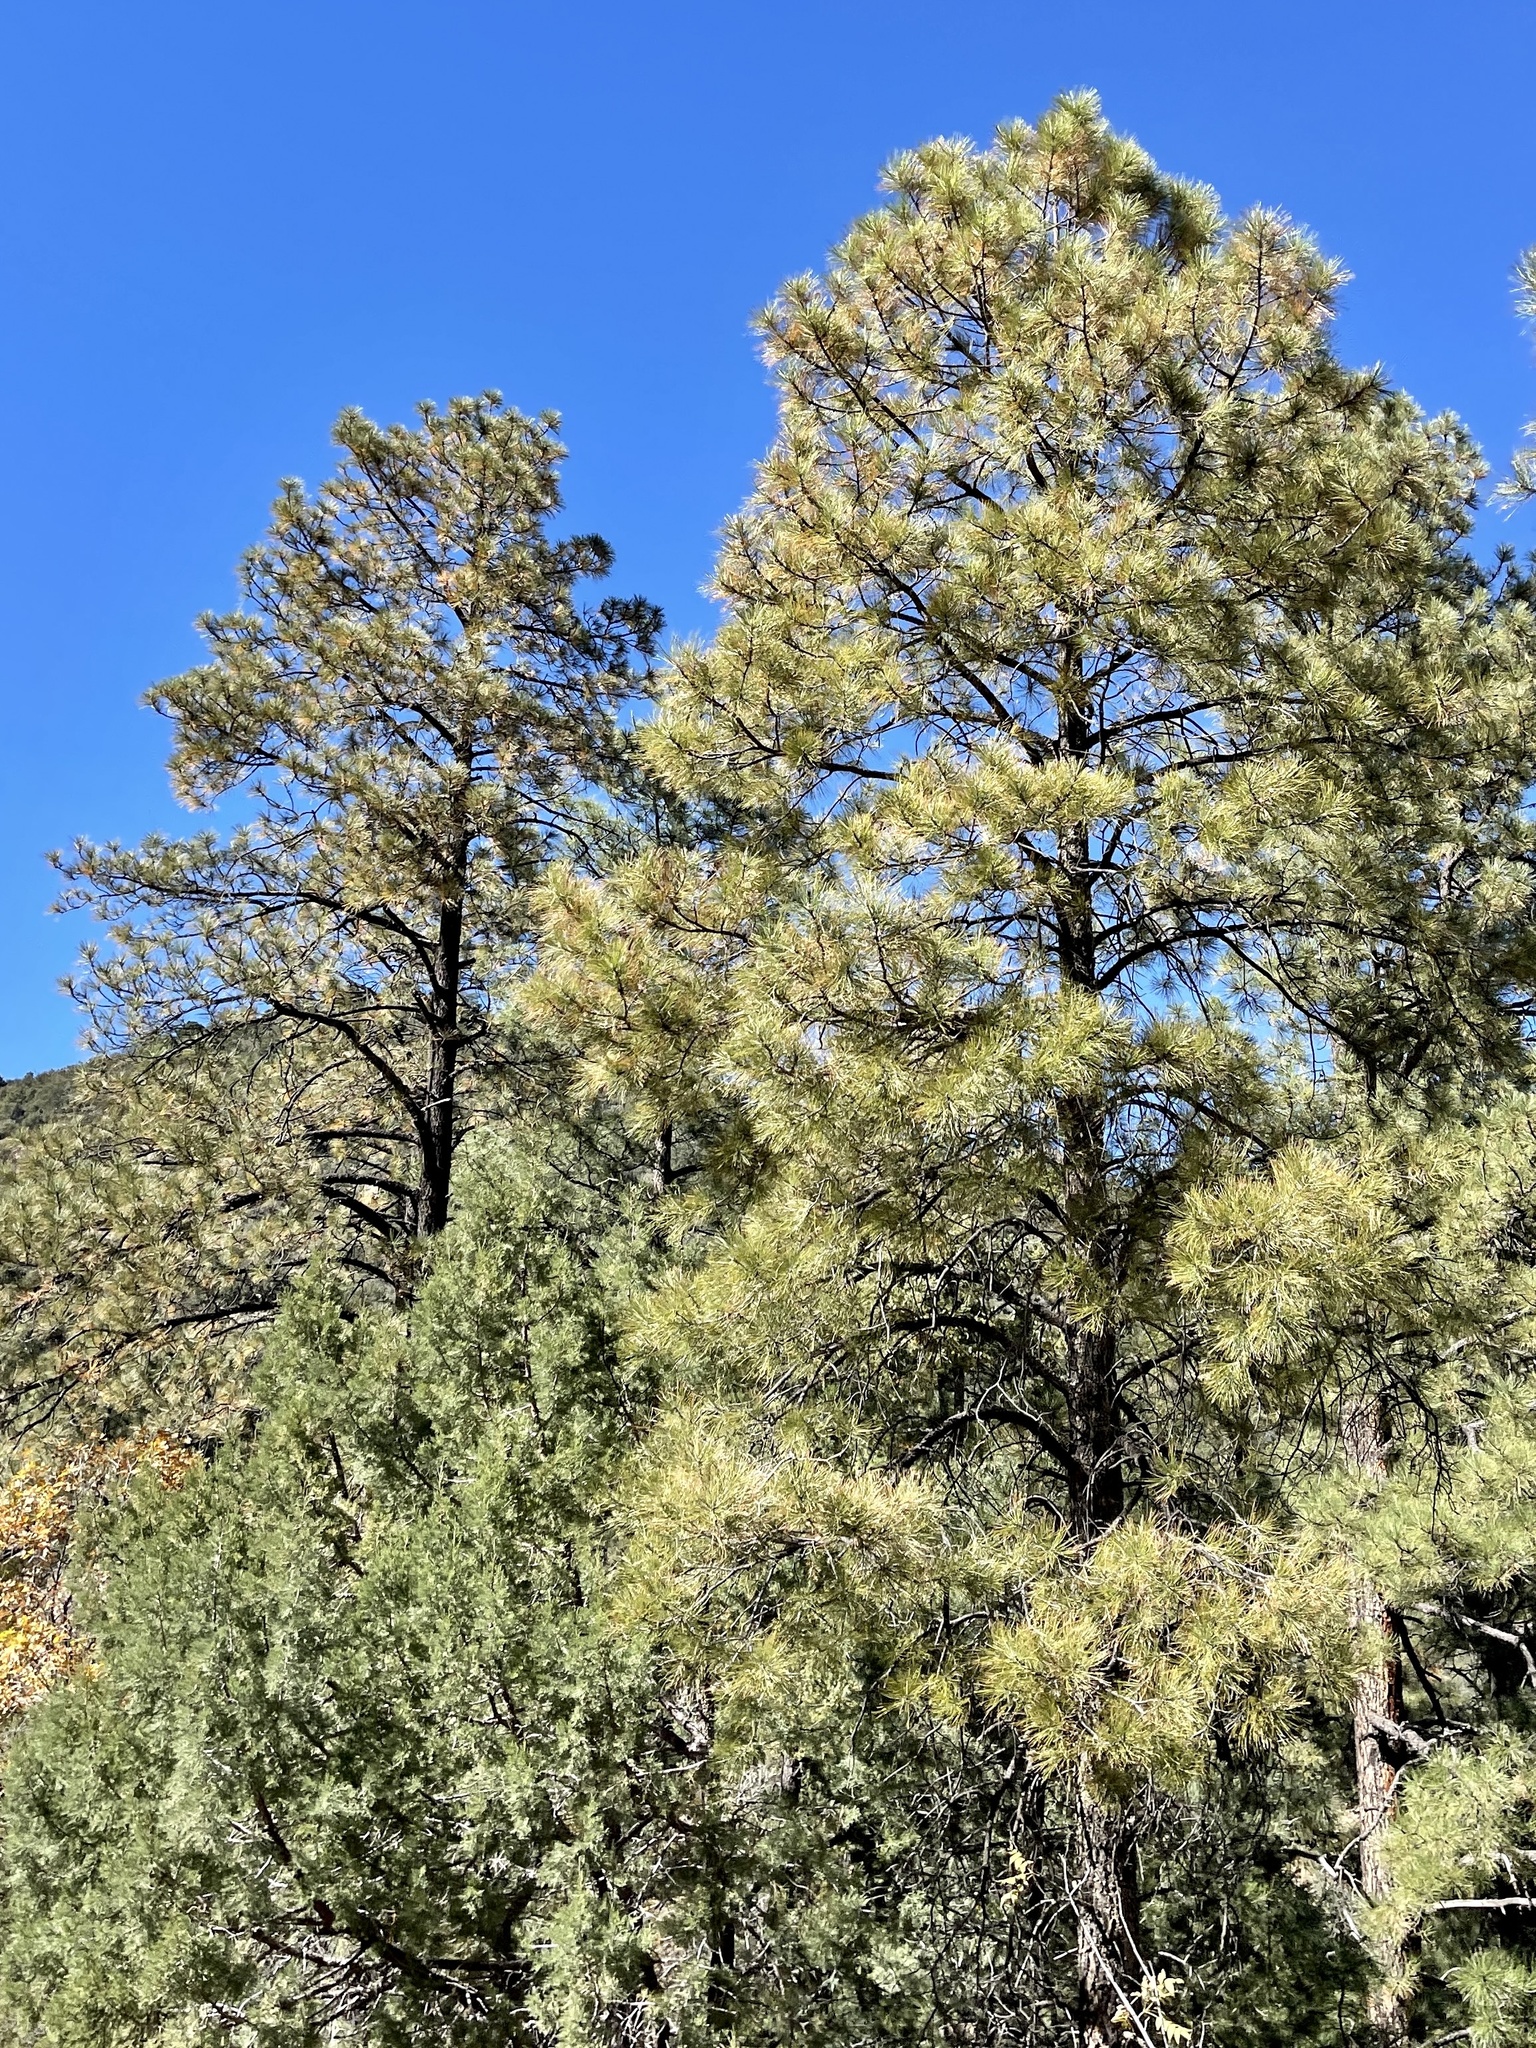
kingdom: Plantae
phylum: Tracheophyta
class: Pinopsida
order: Pinales
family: Pinaceae
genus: Pinus
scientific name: Pinus ponderosa
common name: Western yellow-pine
